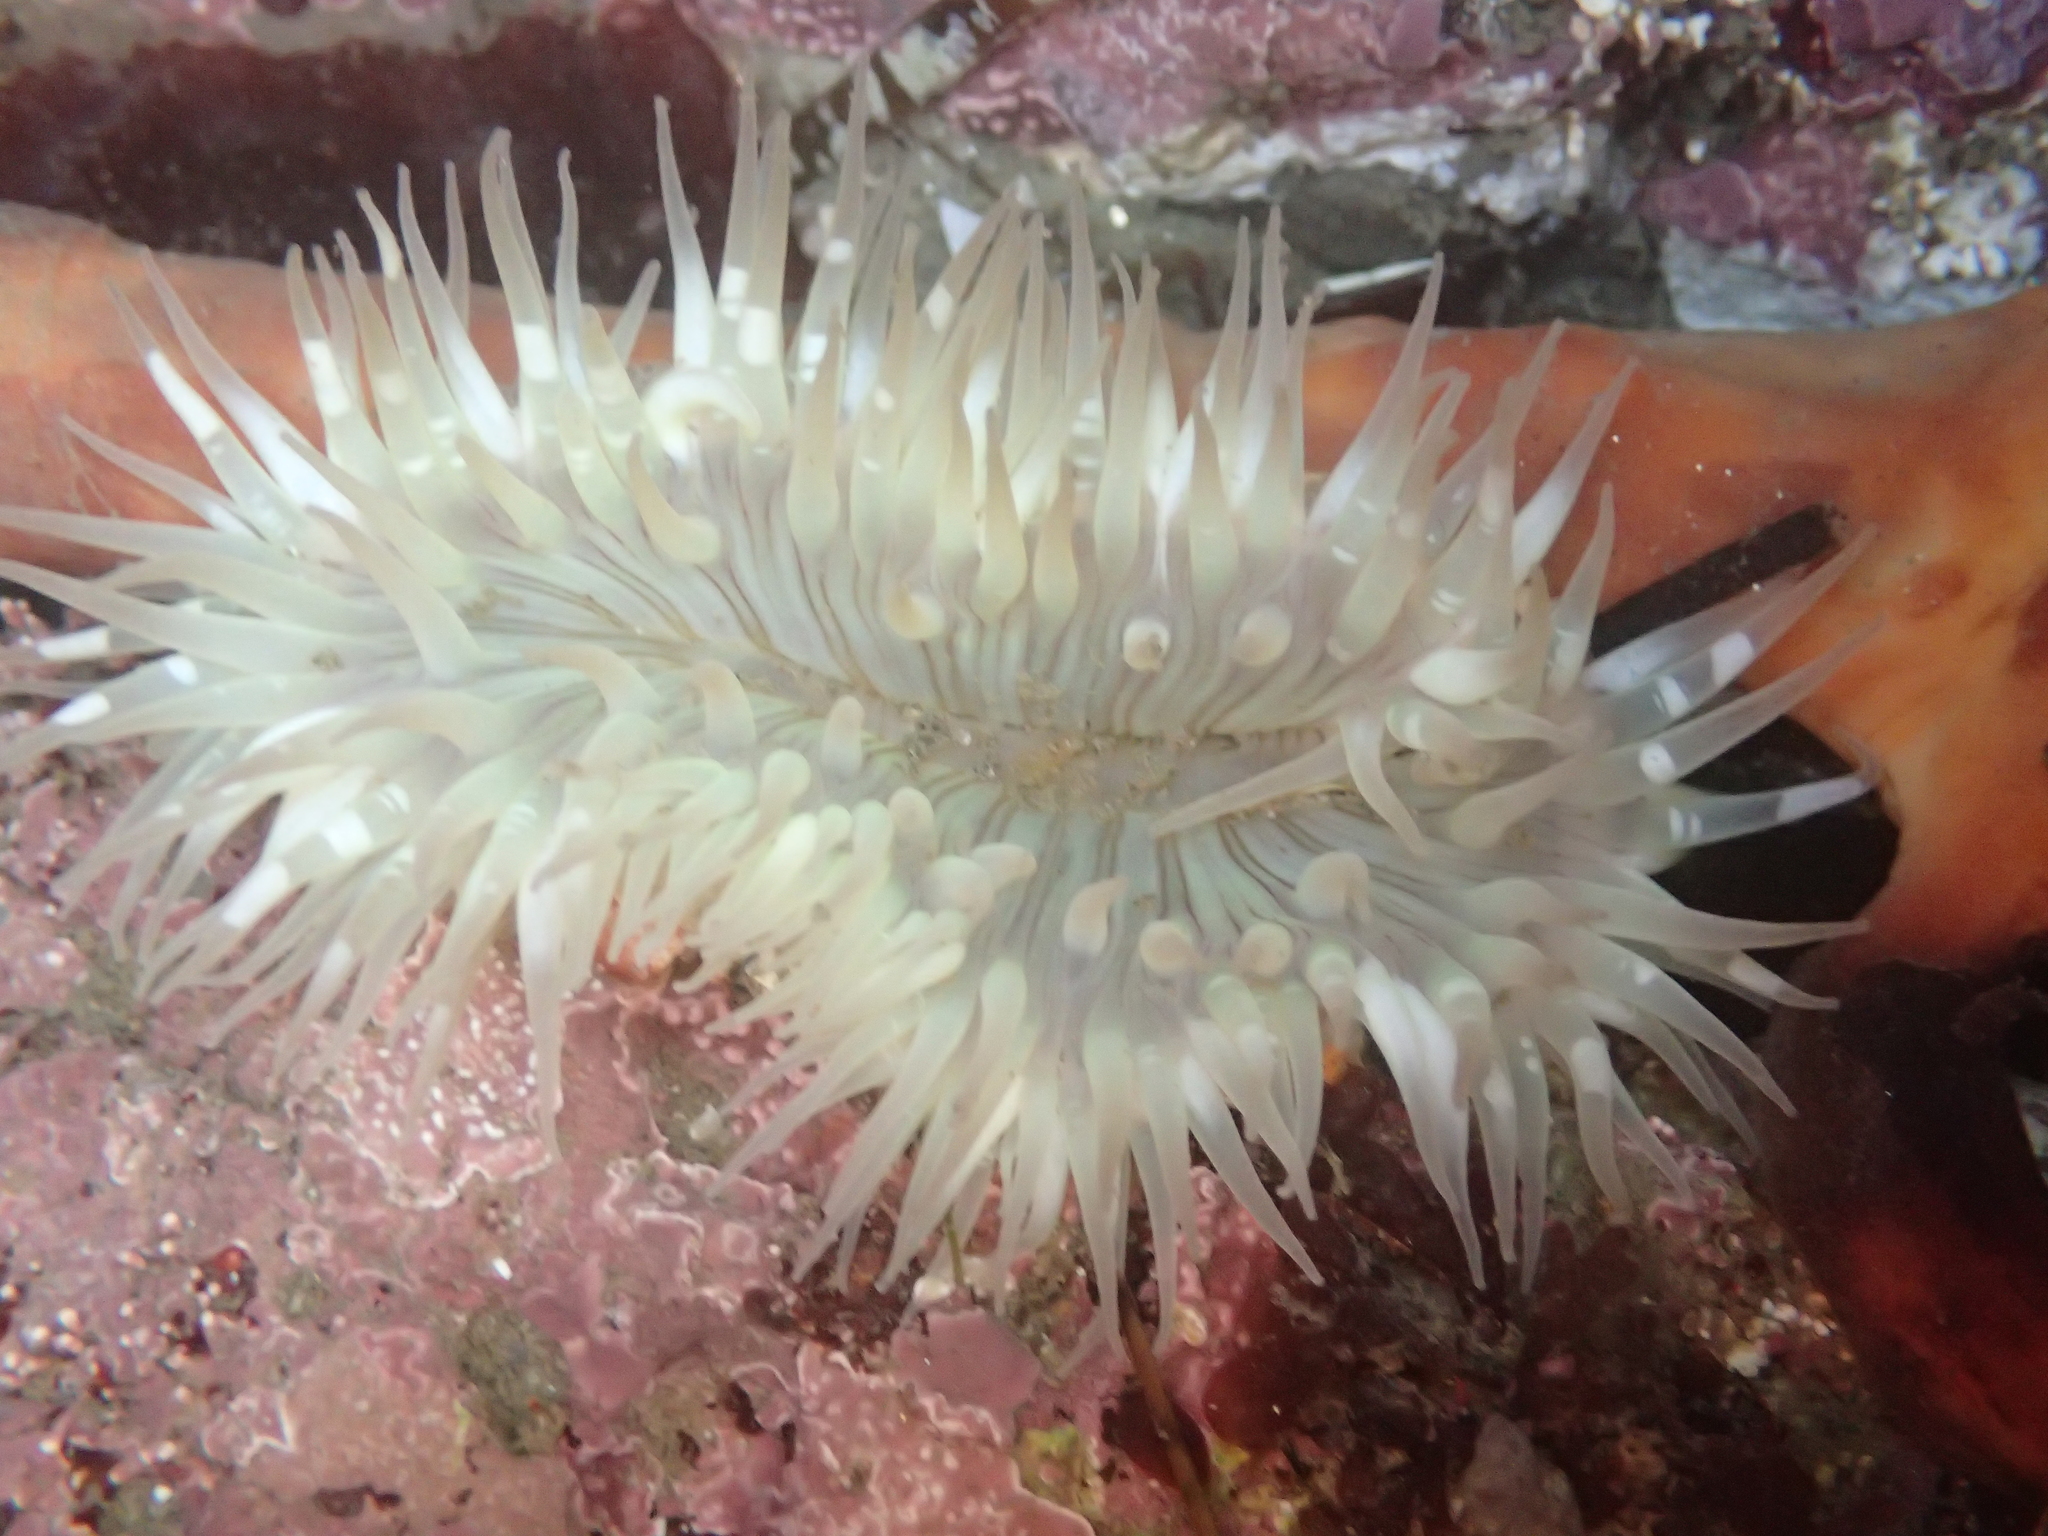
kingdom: Animalia
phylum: Cnidaria
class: Anthozoa
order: Actiniaria
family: Actiniidae
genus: Anthopleura
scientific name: Anthopleura sola
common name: Sun anemone
